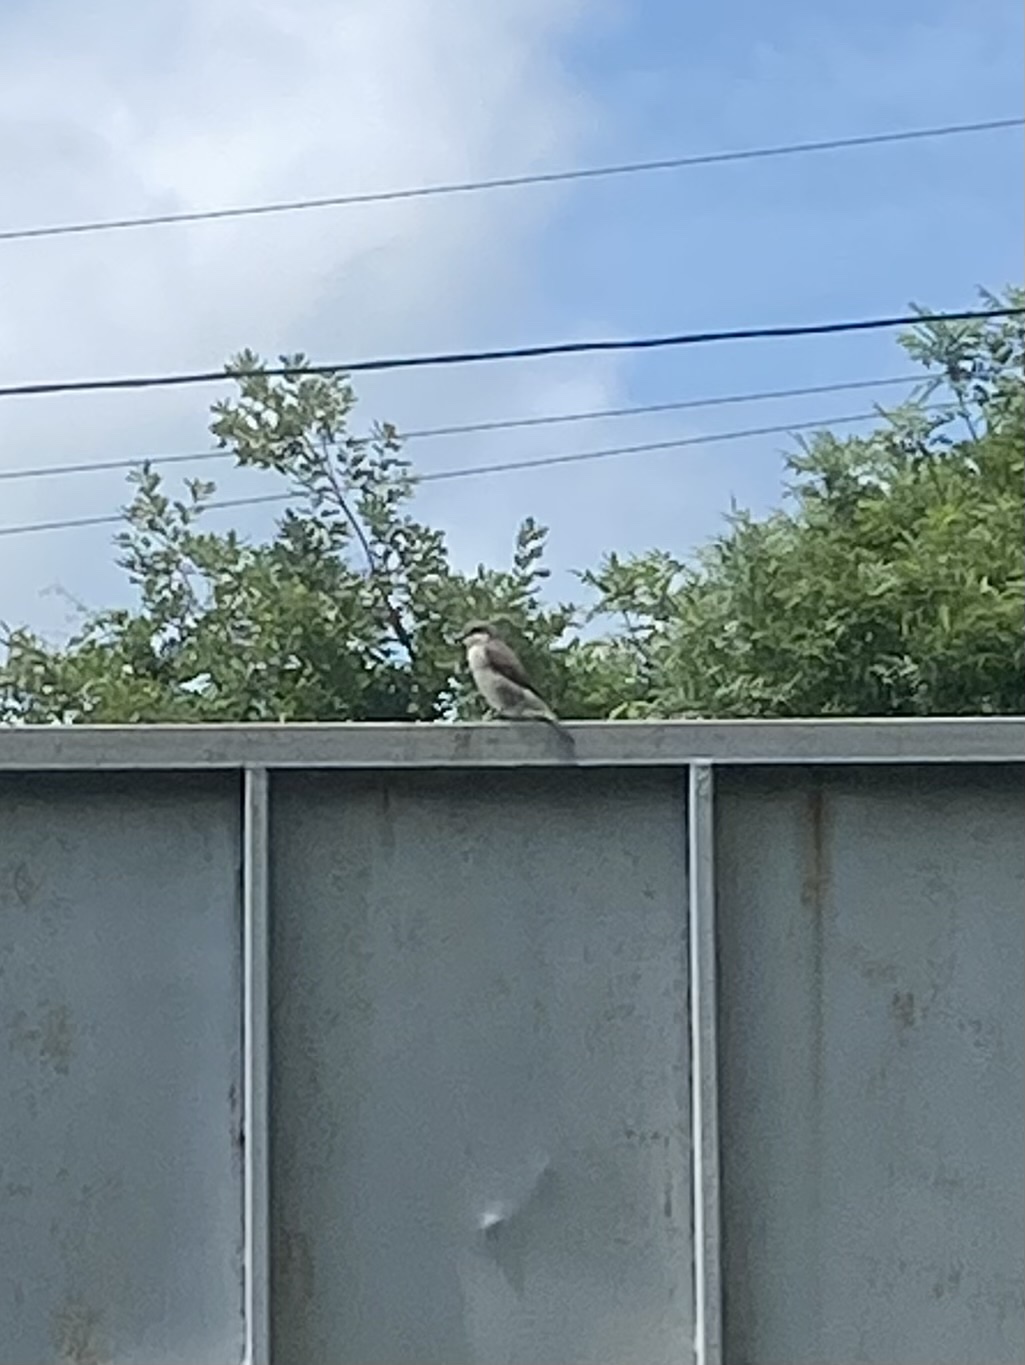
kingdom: Animalia
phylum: Chordata
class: Aves
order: Passeriformes
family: Laniidae
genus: Lanius
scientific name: Lanius collurio
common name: Red-backed shrike
